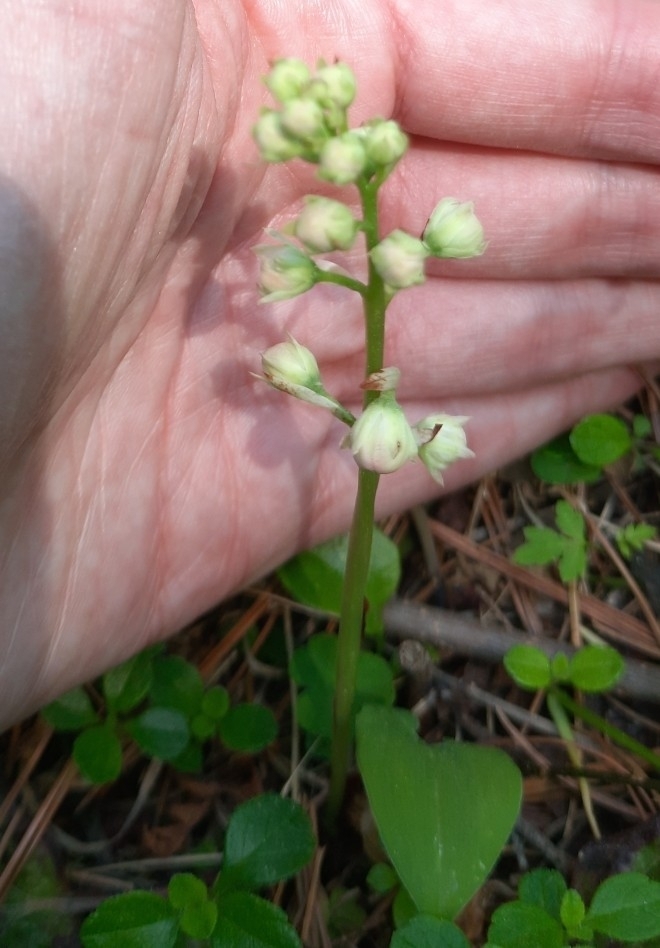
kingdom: Plantae
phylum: Tracheophyta
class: Magnoliopsida
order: Ericales
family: Ericaceae
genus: Pyrola
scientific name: Pyrola rotundifolia
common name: Round-leaved wintergreen
